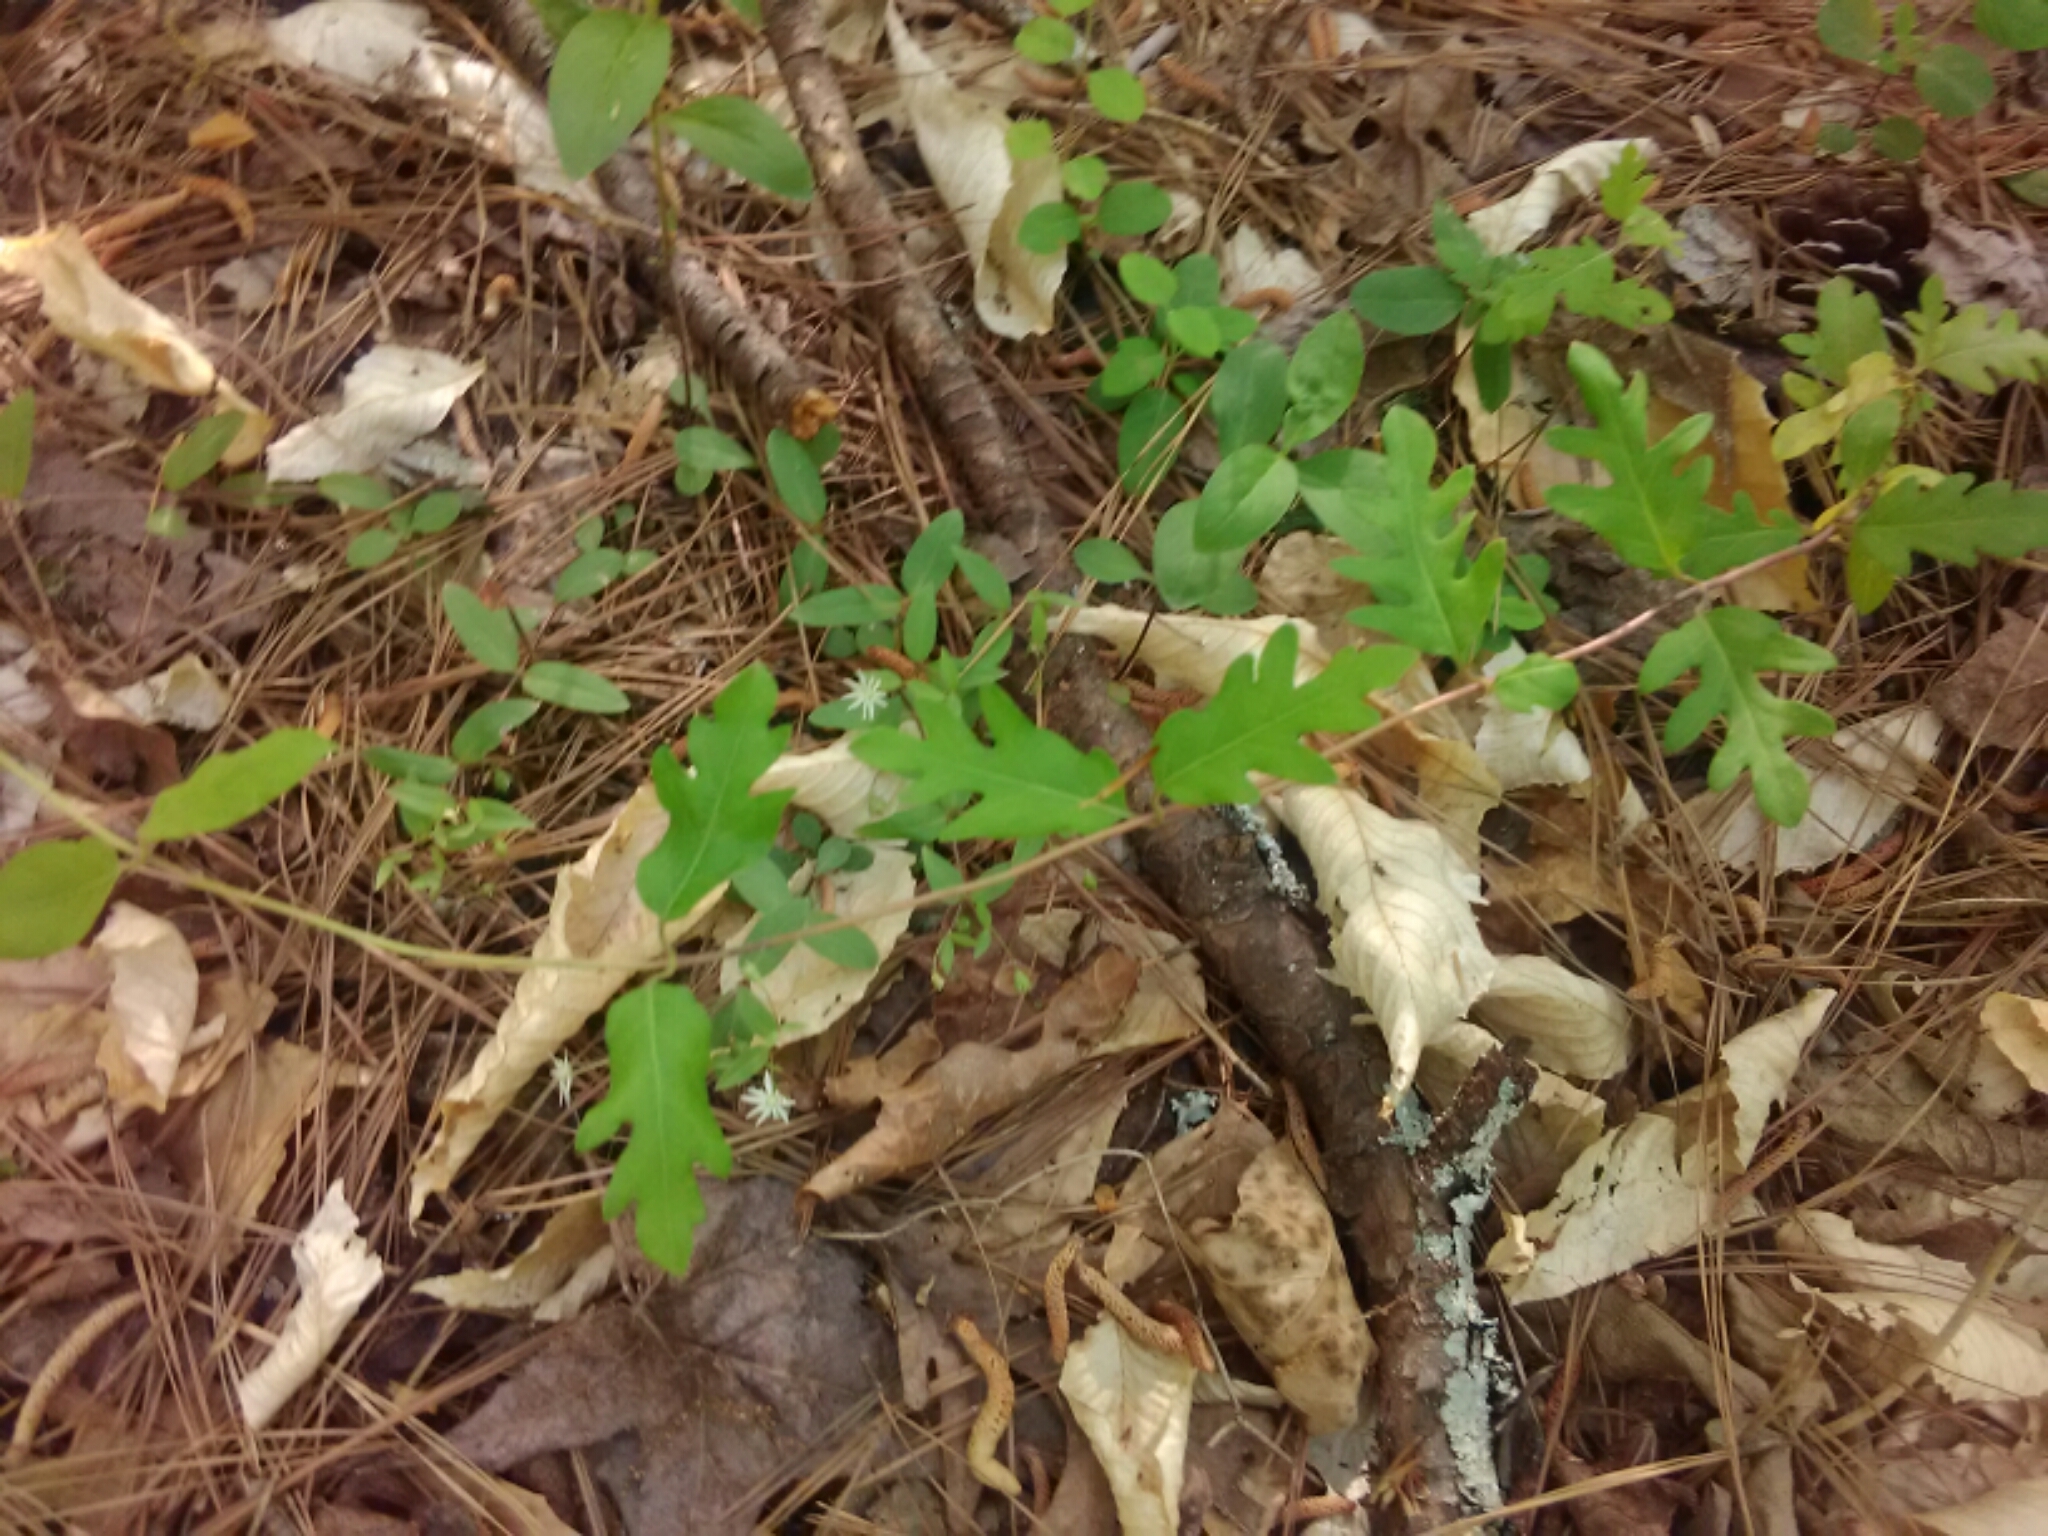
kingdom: Plantae
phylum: Tracheophyta
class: Magnoliopsida
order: Dipsacales
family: Caprifoliaceae
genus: Lonicera
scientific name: Lonicera japonica
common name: Japanese honeysuckle
